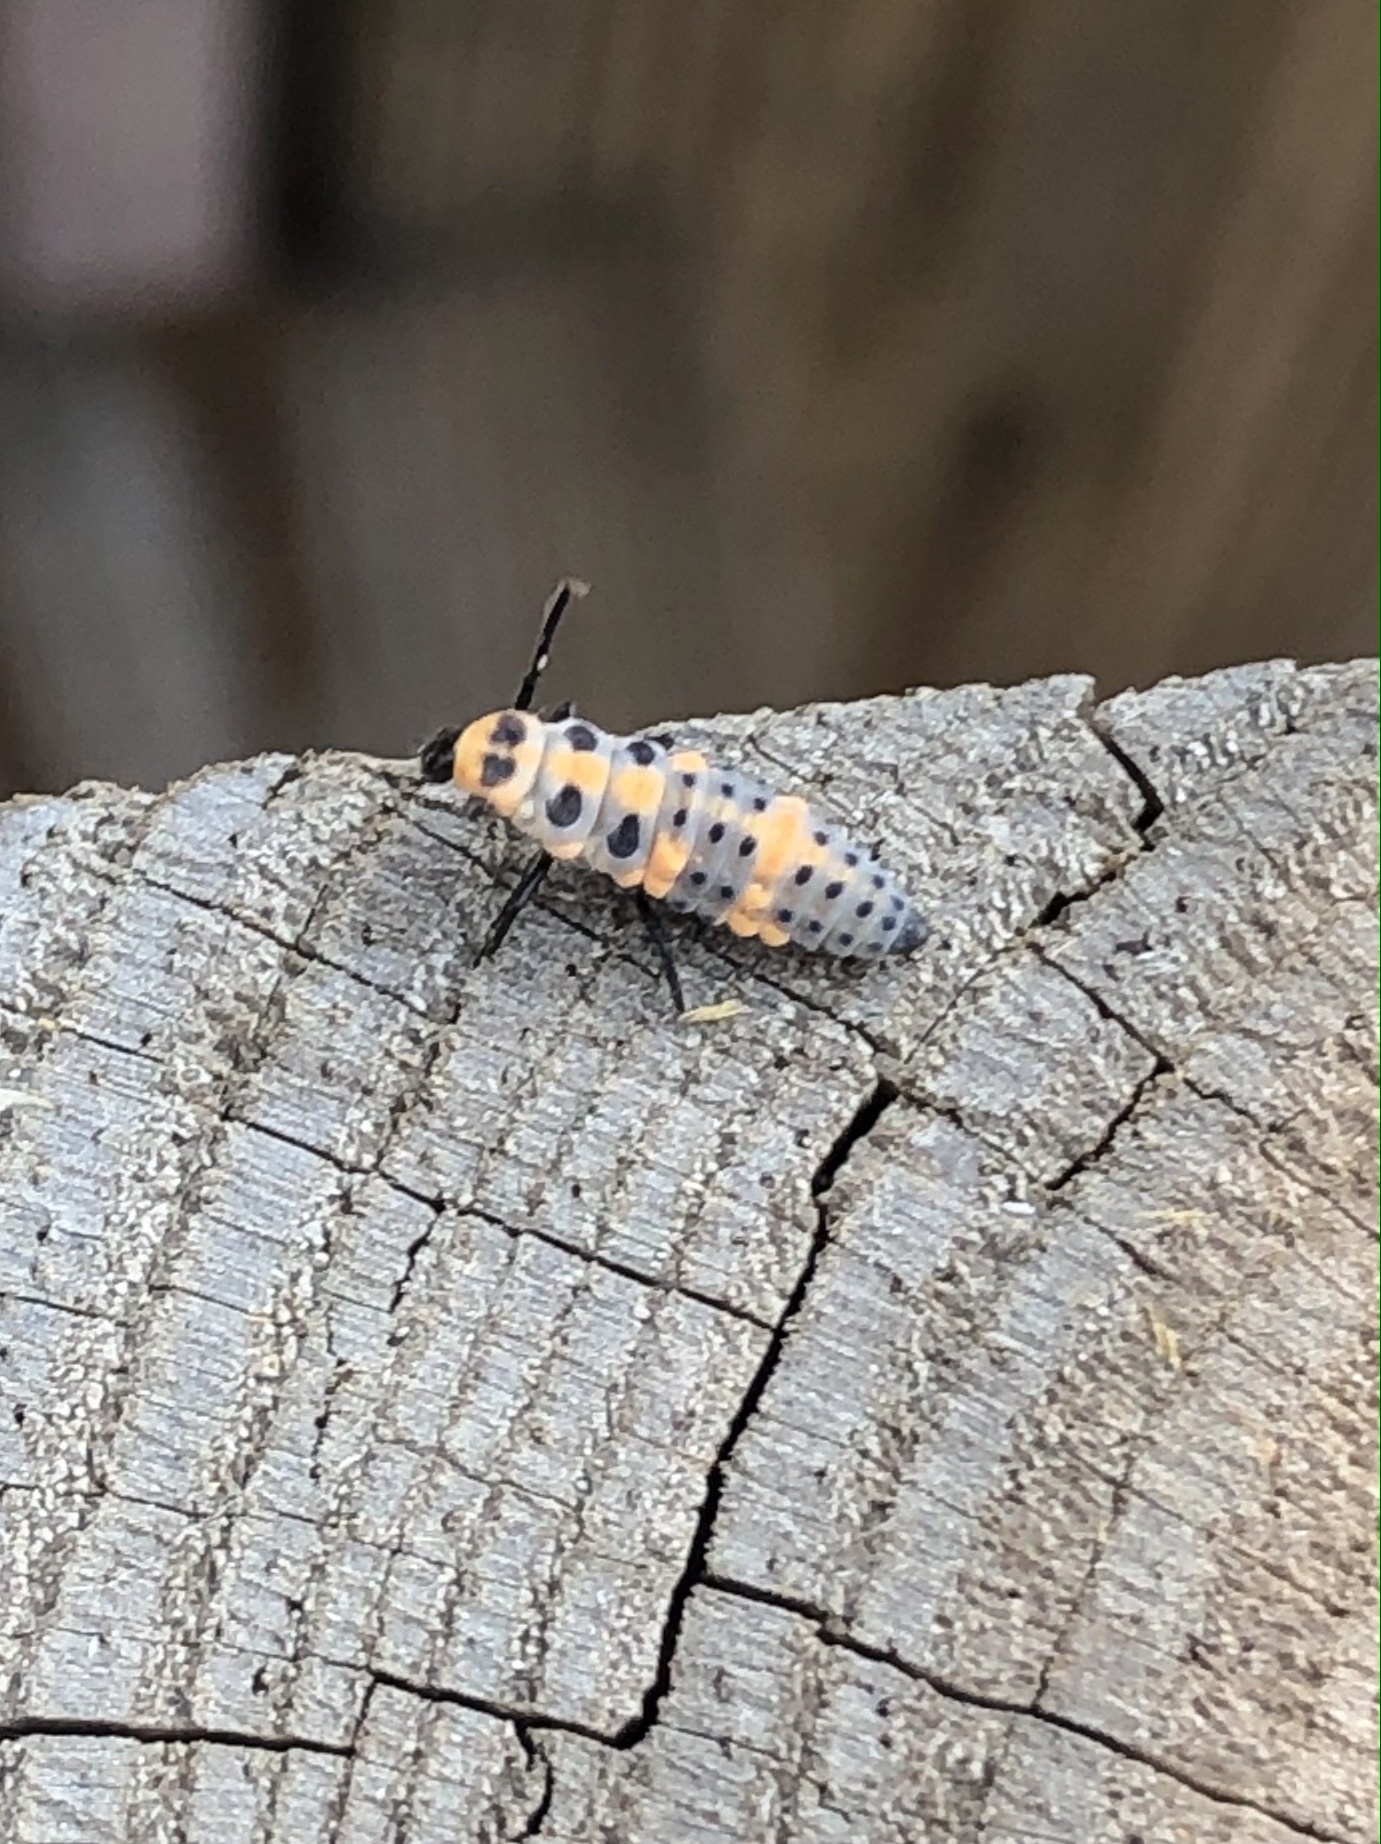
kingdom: Animalia
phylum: Arthropoda
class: Insecta
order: Coleoptera
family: Coccinellidae
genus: Coccinella
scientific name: Coccinella septempunctata
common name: Sevenspotted lady beetle
